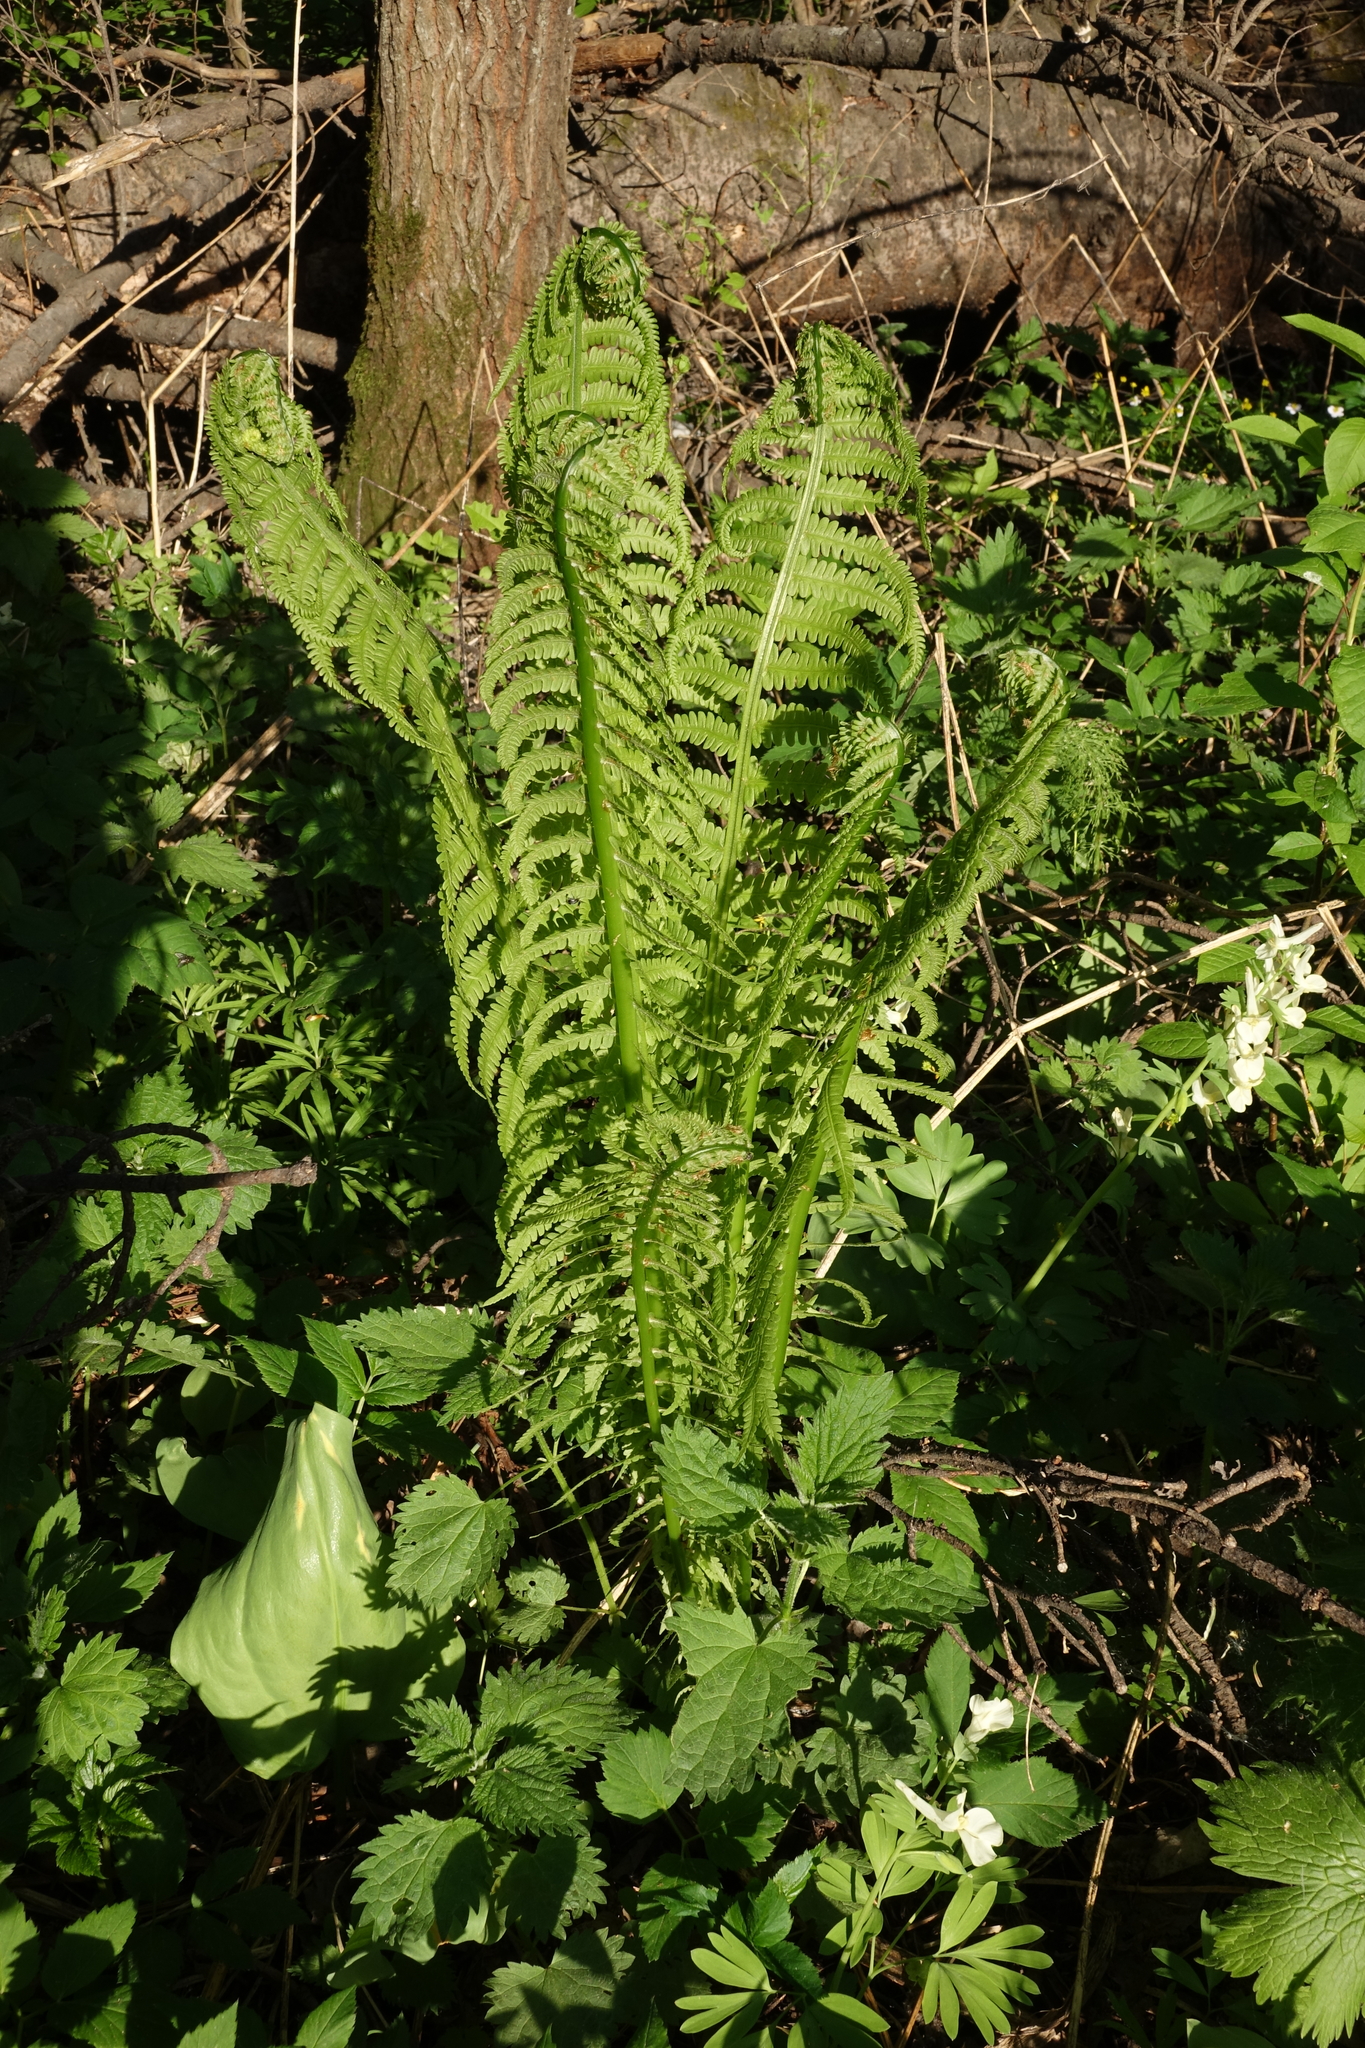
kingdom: Plantae
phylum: Tracheophyta
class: Polypodiopsida
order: Polypodiales
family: Onocleaceae
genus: Matteuccia
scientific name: Matteuccia struthiopteris
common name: Ostrich fern
